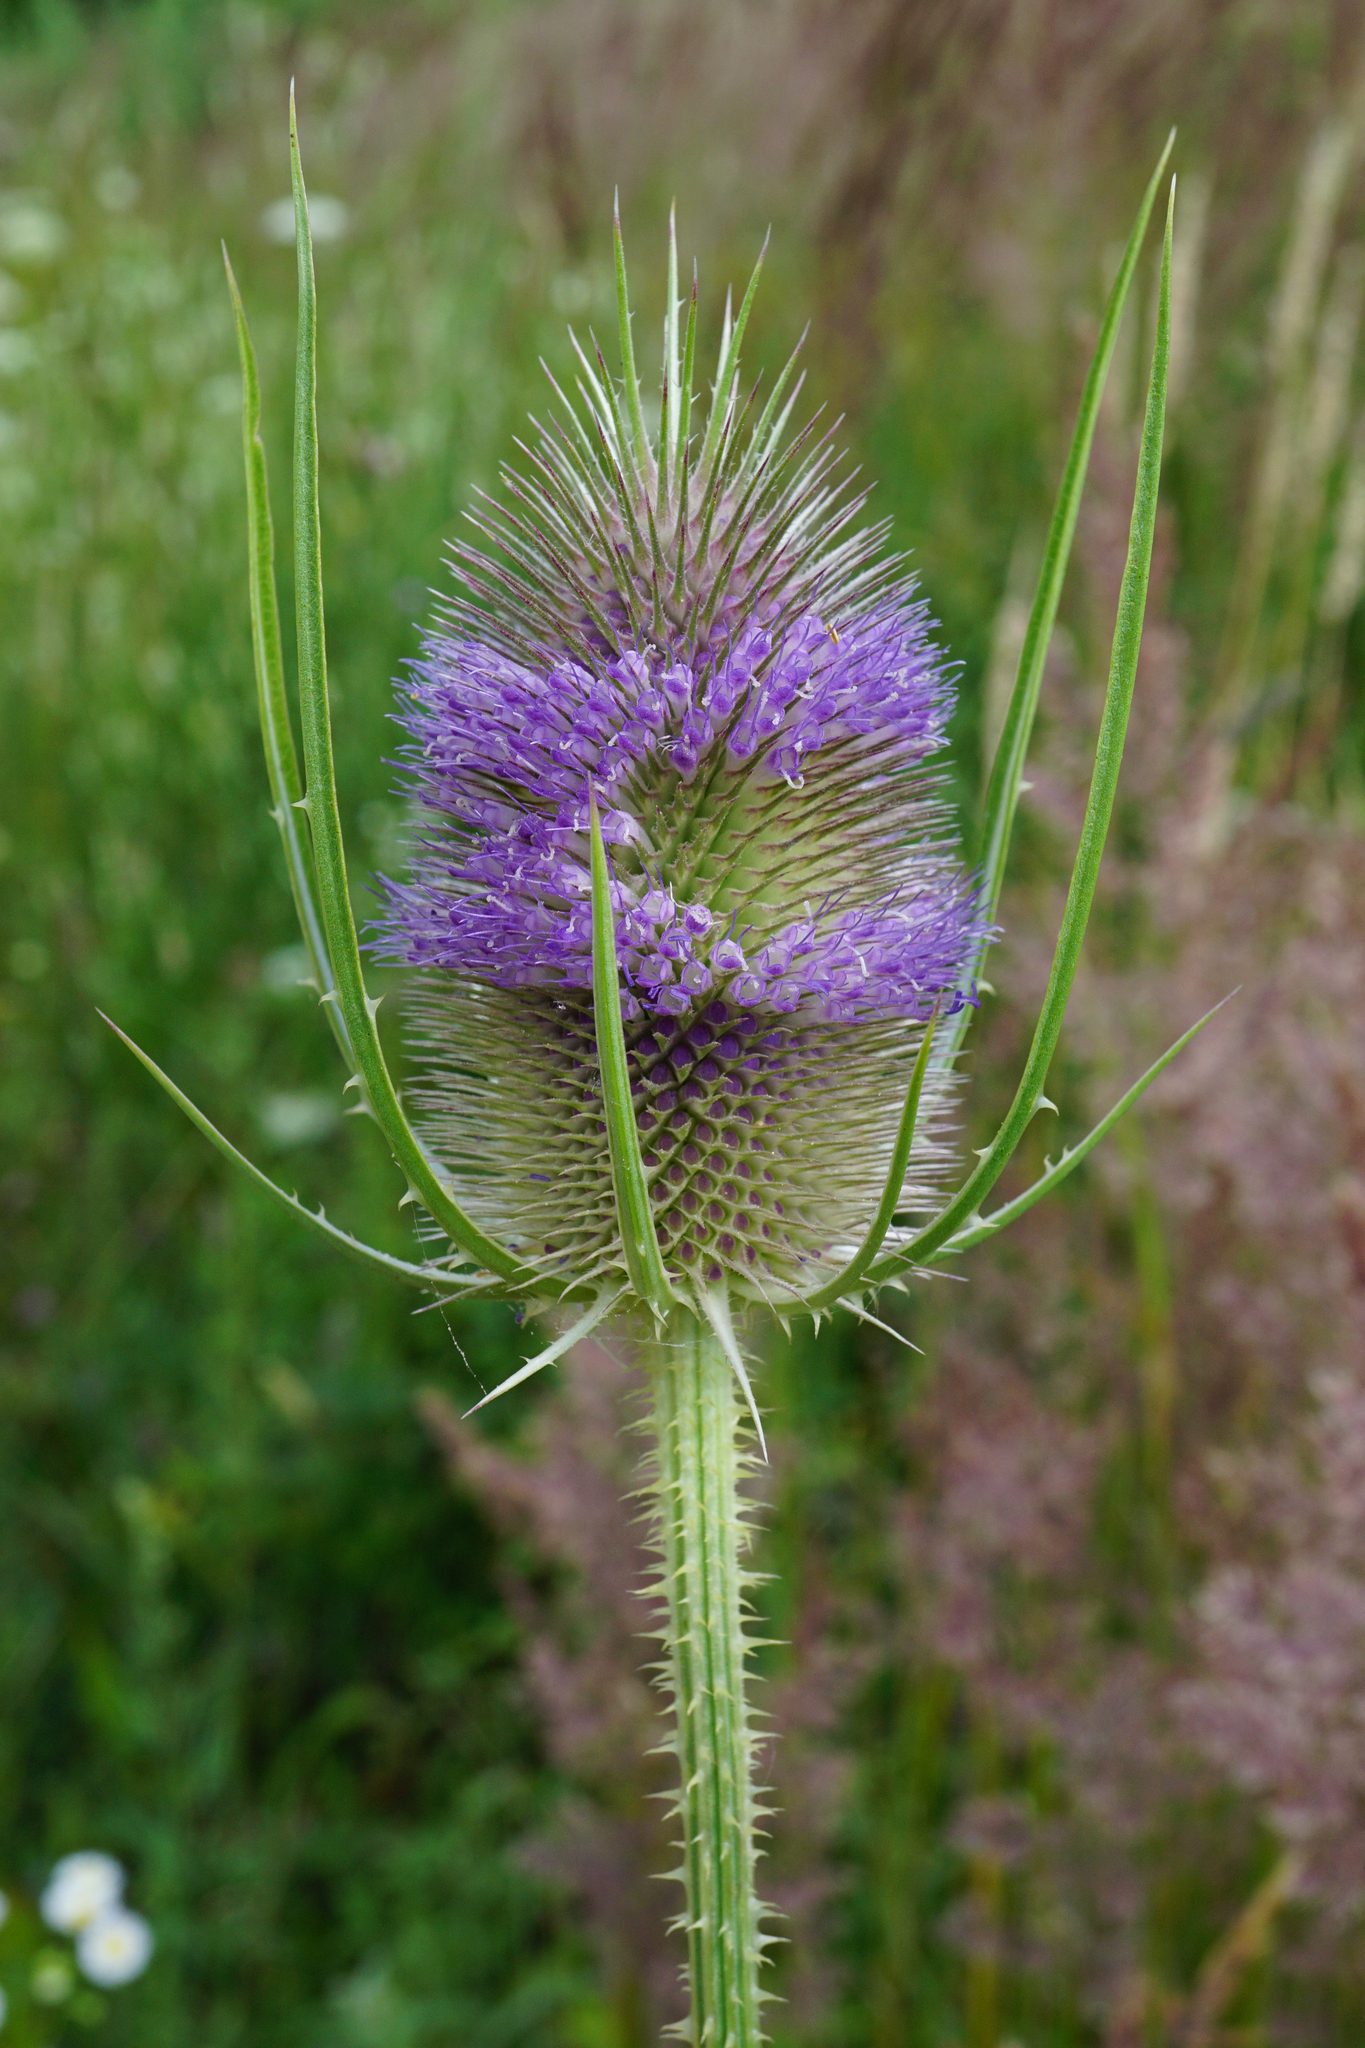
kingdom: Plantae
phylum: Tracheophyta
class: Magnoliopsida
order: Dipsacales
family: Caprifoliaceae
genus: Dipsacus
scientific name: Dipsacus fullonum
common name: Teasel
